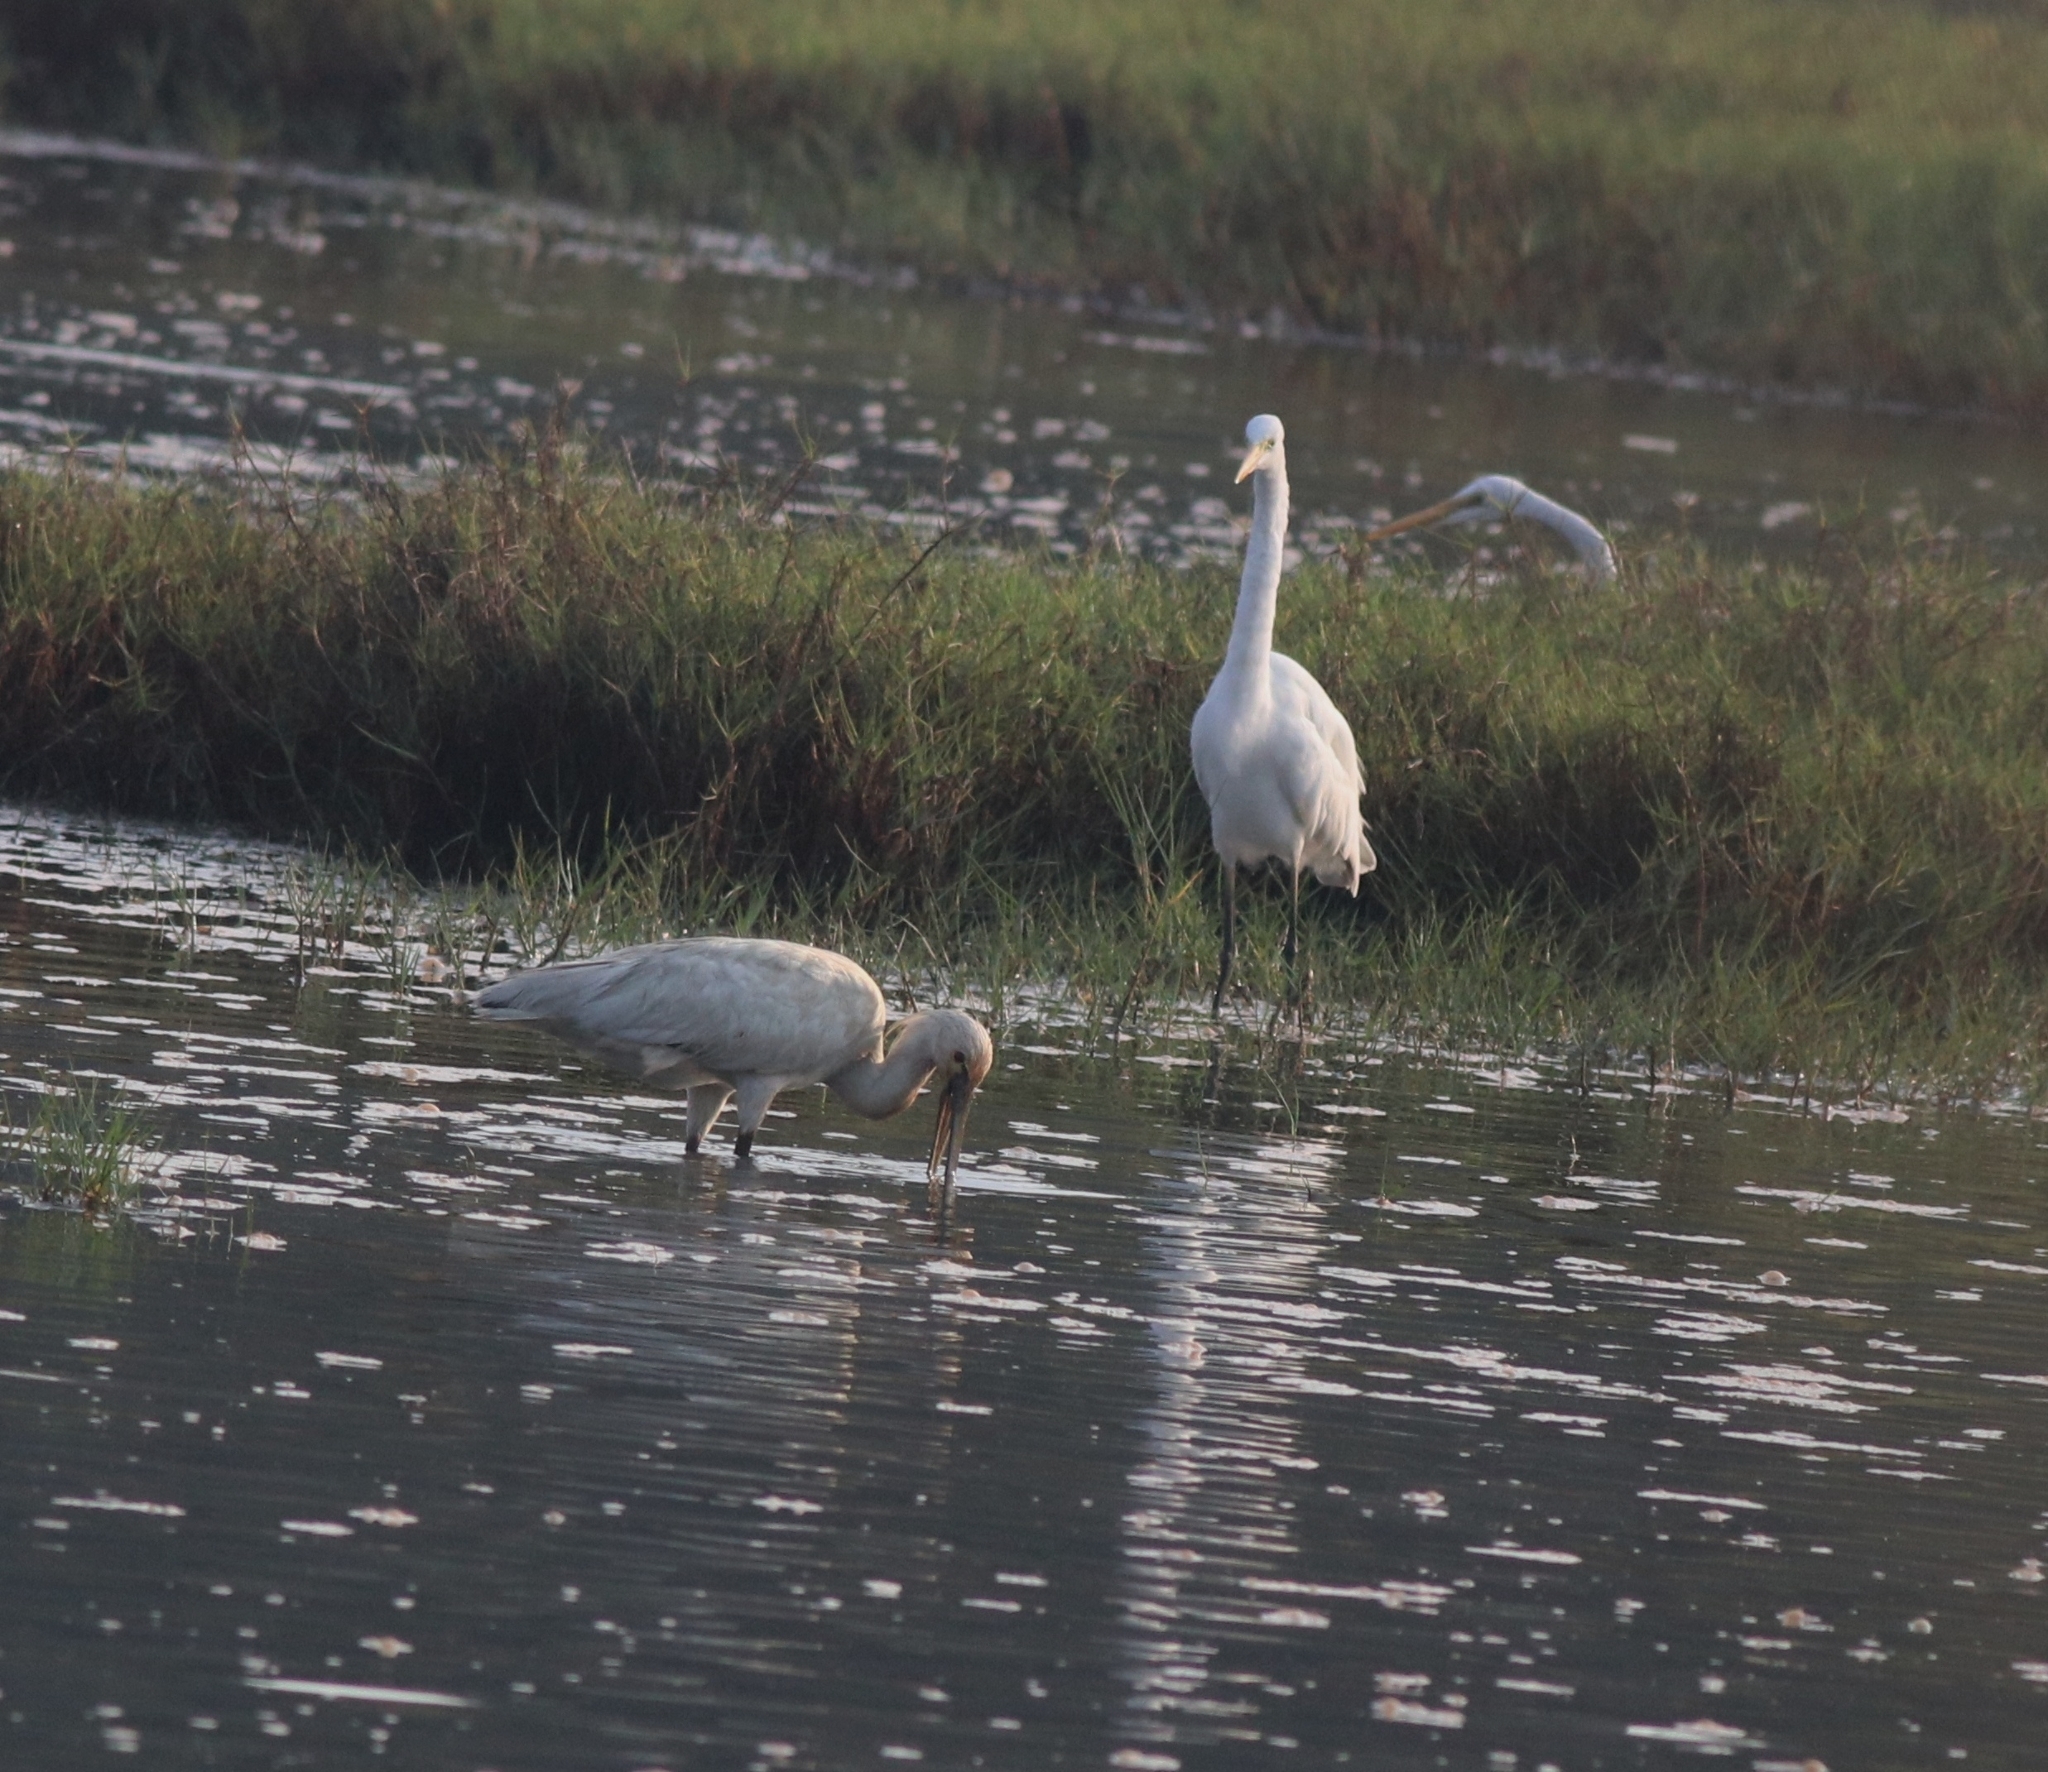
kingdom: Animalia
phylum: Chordata
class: Aves
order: Pelecaniformes
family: Threskiornithidae
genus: Platalea
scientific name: Platalea leucorodia
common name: Eurasian spoonbill
